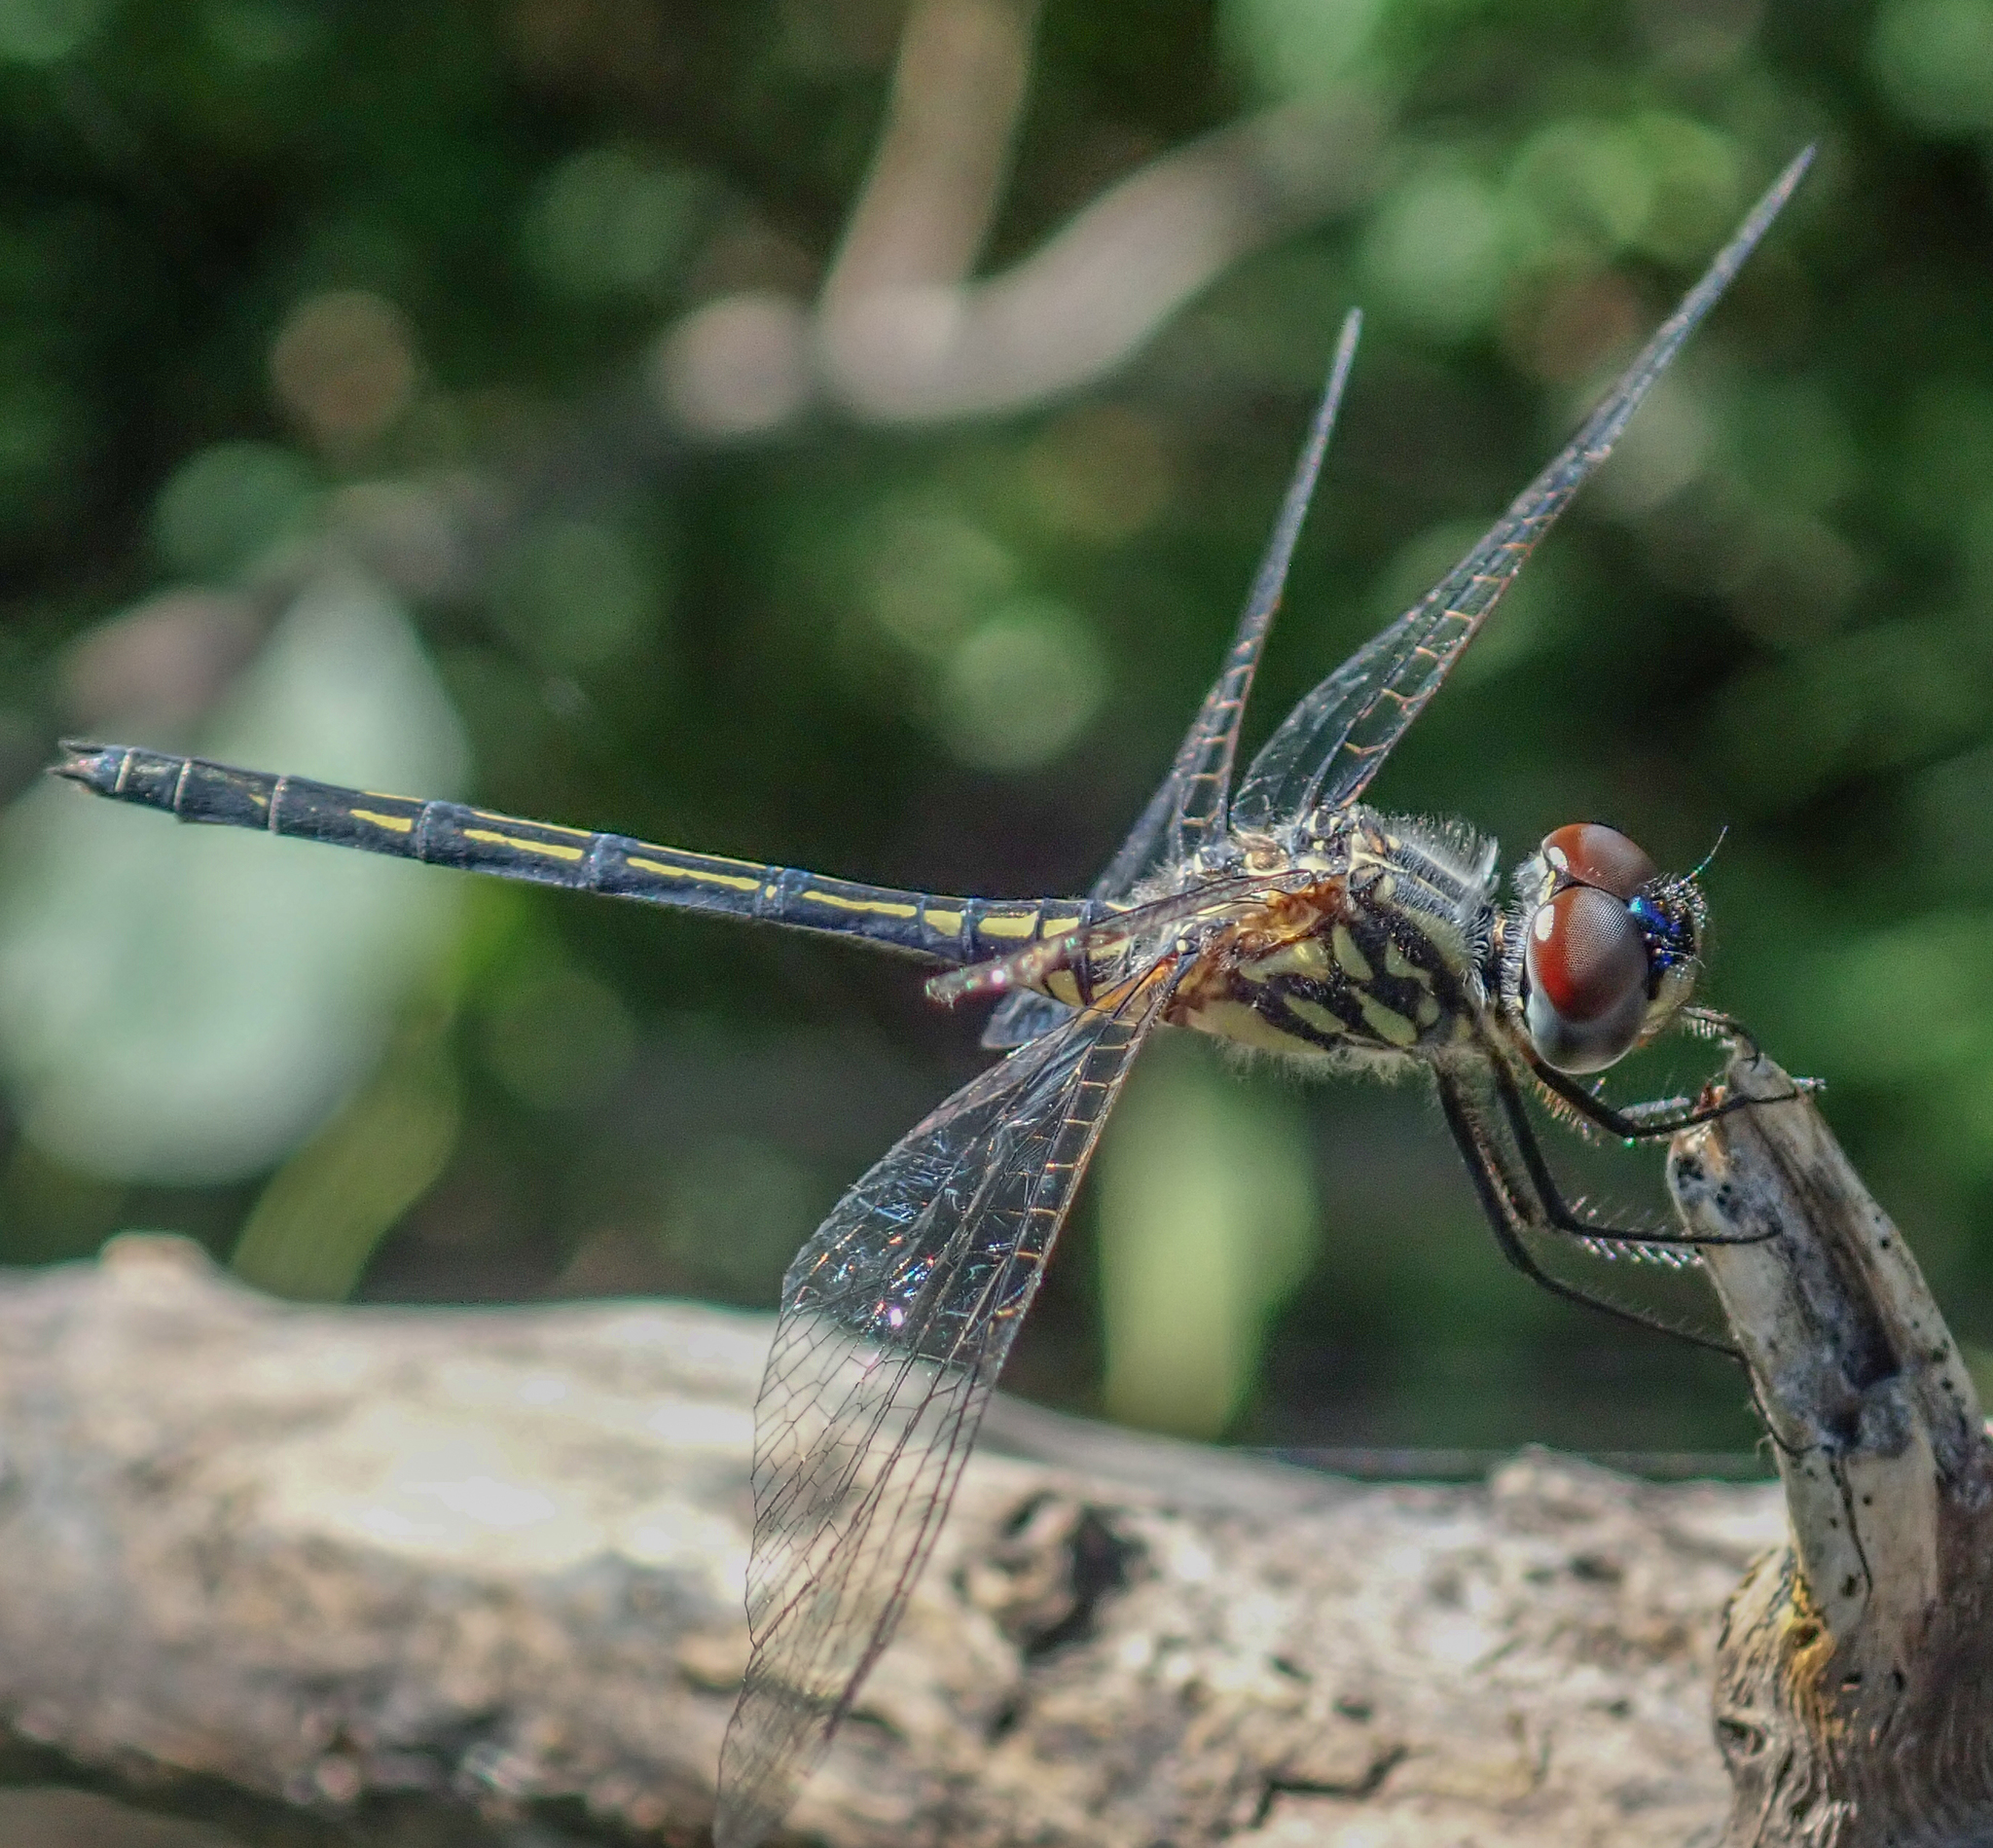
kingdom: Animalia
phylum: Arthropoda
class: Insecta
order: Odonata
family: Libellulidae
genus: Trithemis
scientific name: Trithemis hecate
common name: Silhouette dropwing
